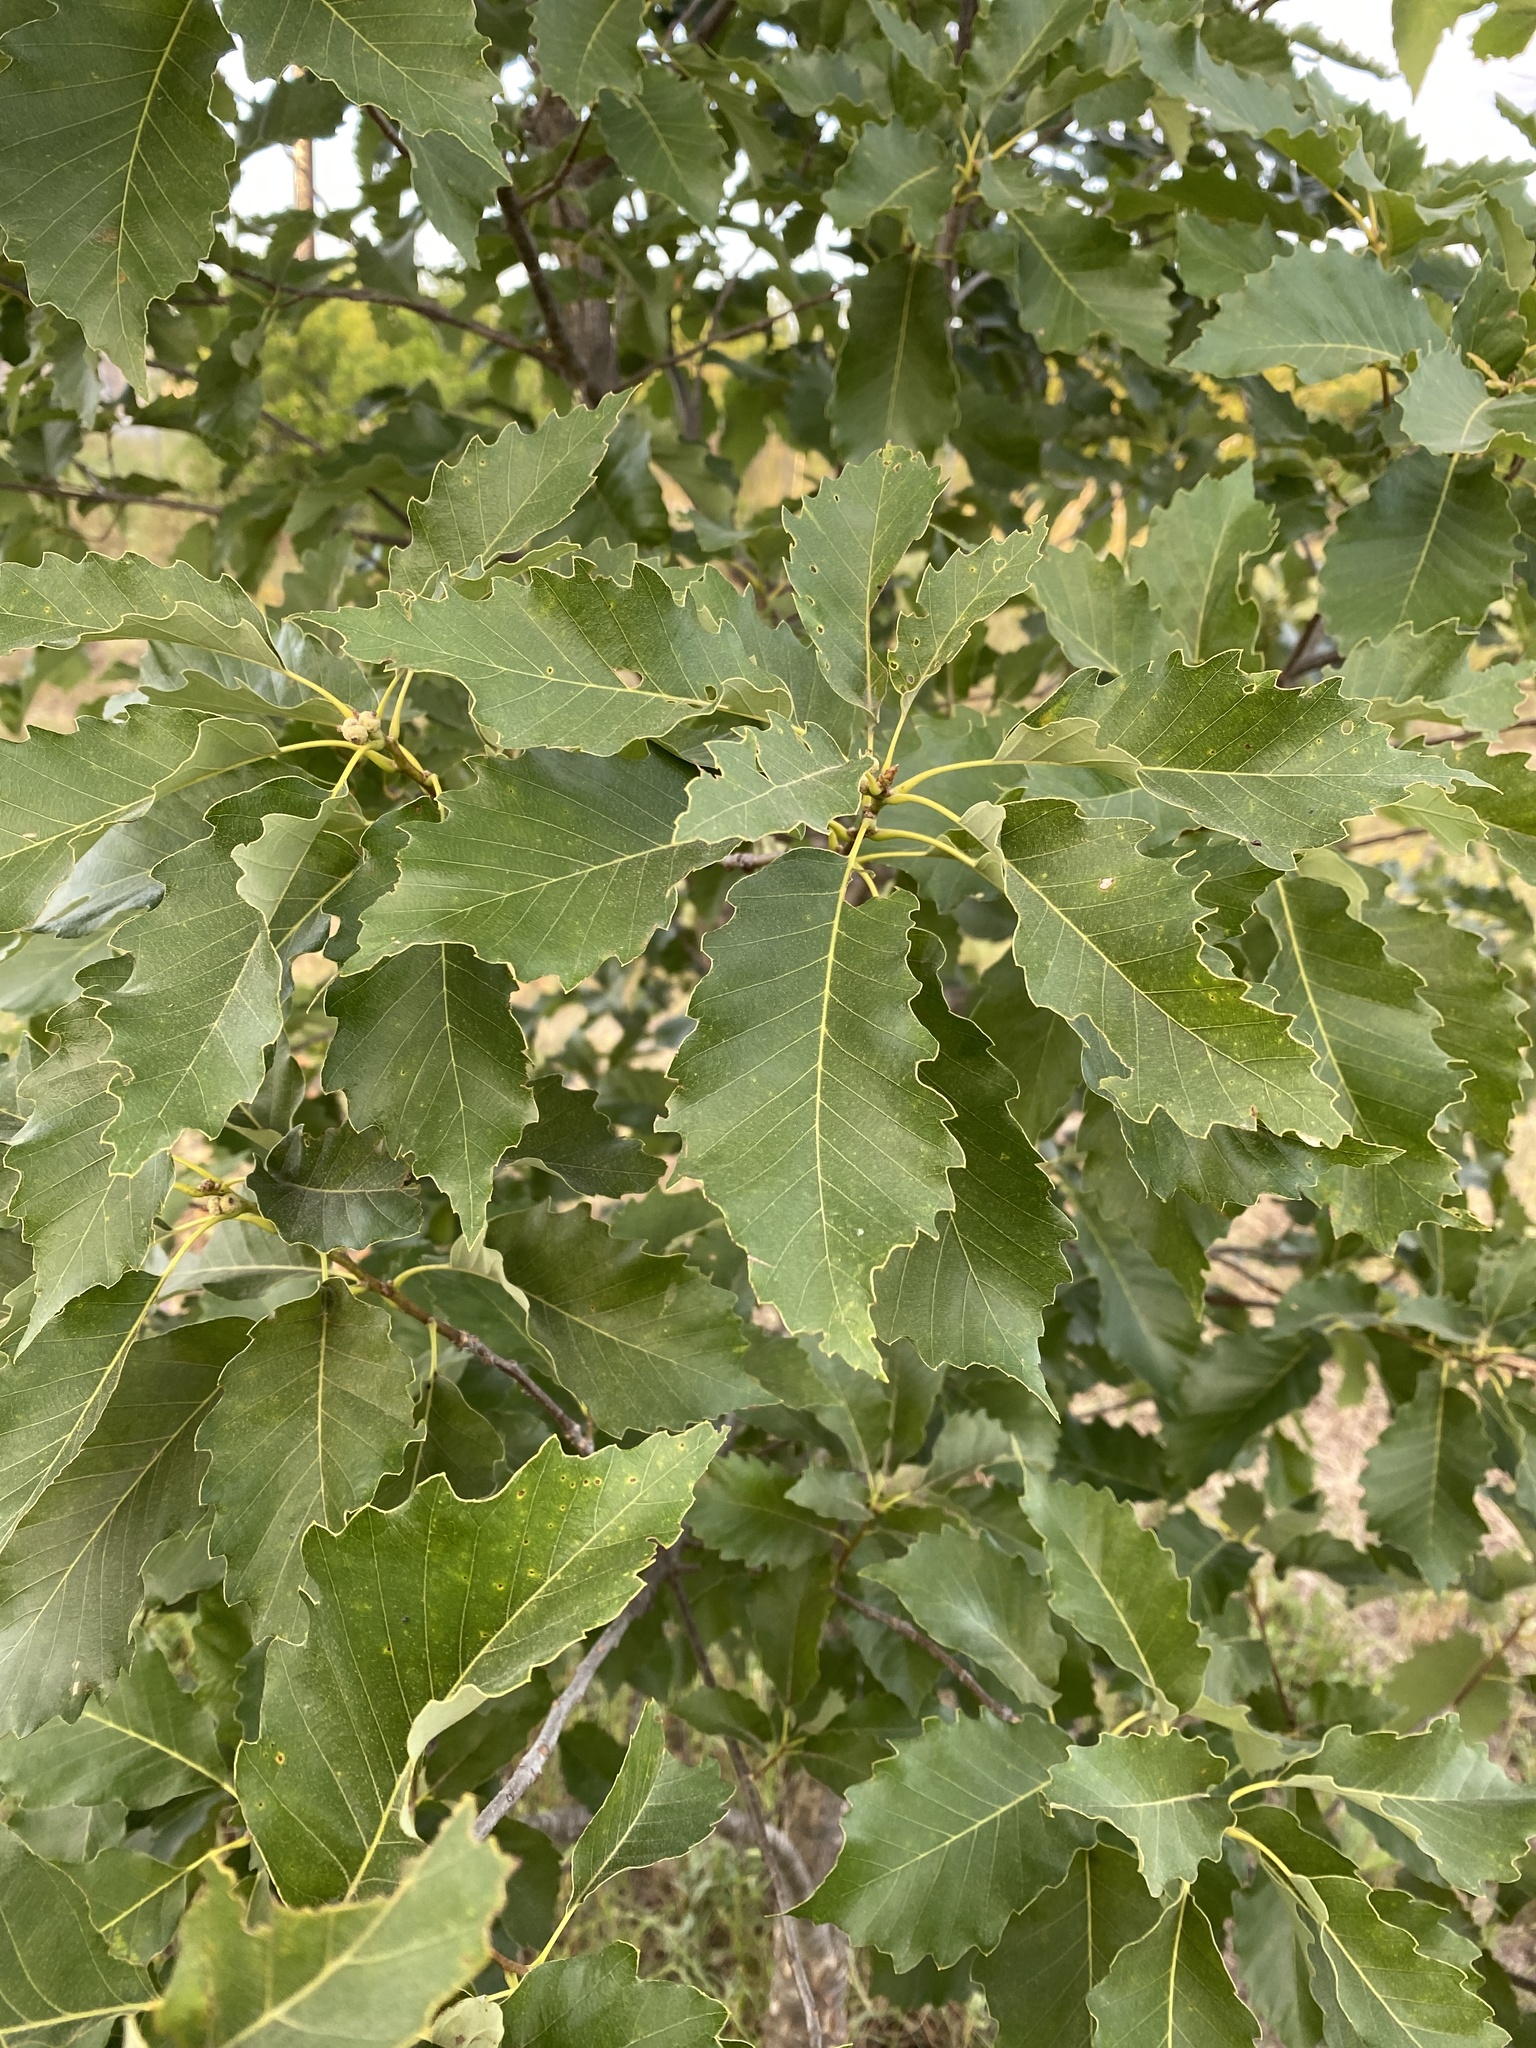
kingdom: Plantae
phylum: Tracheophyta
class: Magnoliopsida
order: Fagales
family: Fagaceae
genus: Quercus
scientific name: Quercus muehlenbergii
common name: Chinkapin oak
